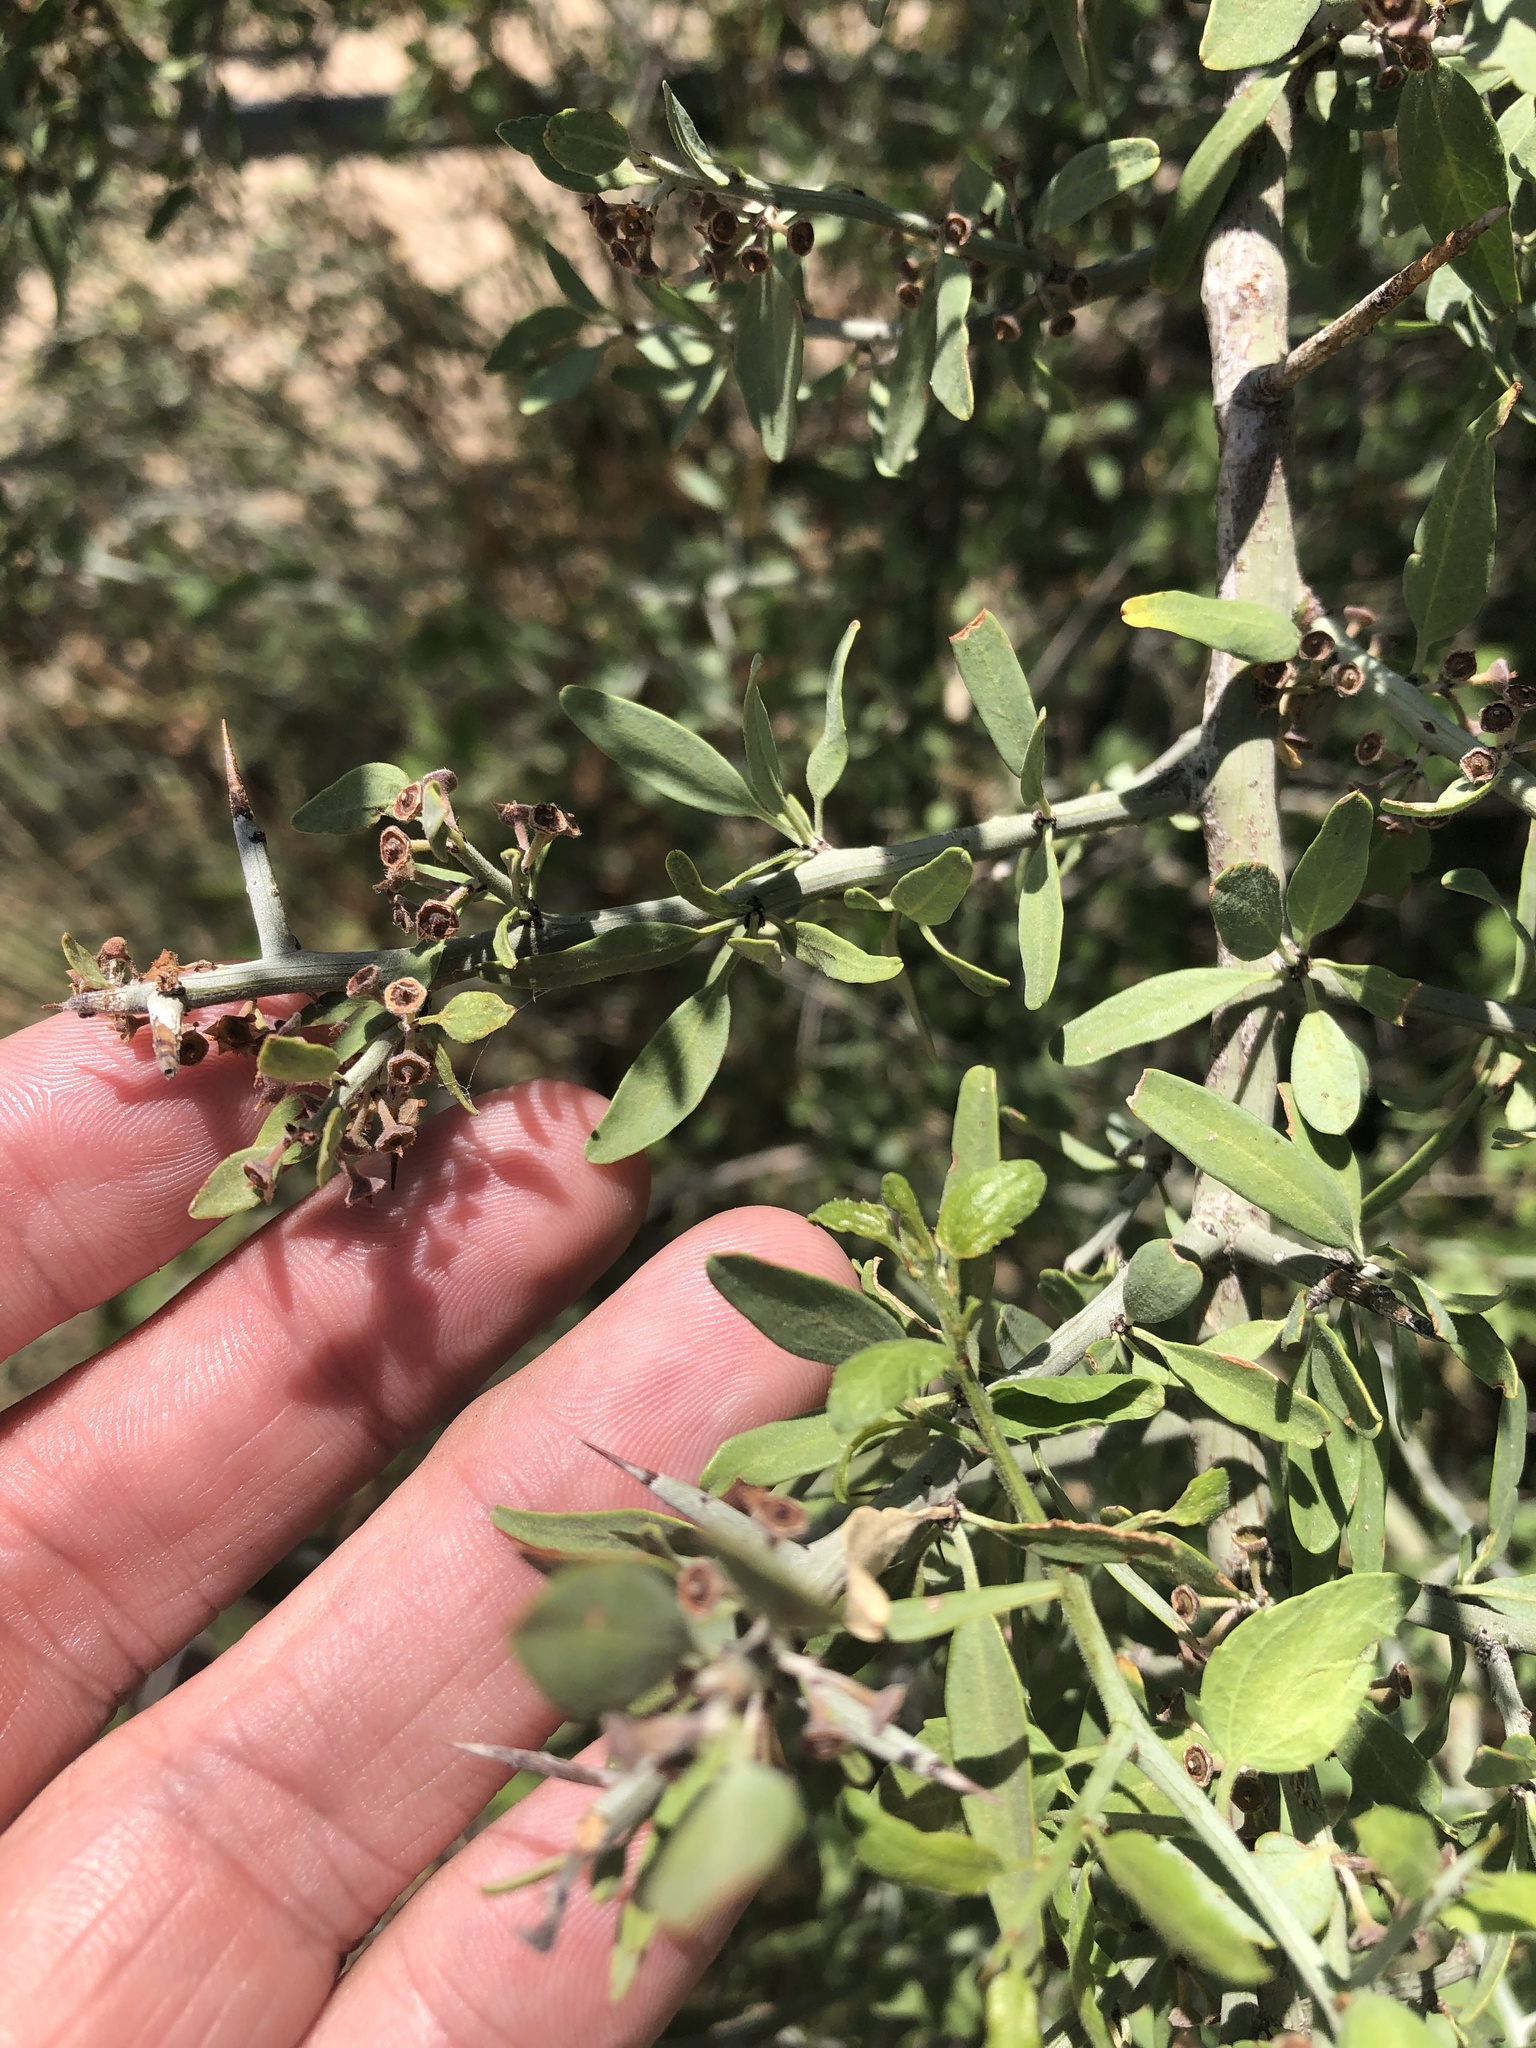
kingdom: Plantae
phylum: Tracheophyta
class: Magnoliopsida
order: Rosales
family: Rhamnaceae
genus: Sarcomphalus
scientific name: Sarcomphalus obtusifolius
